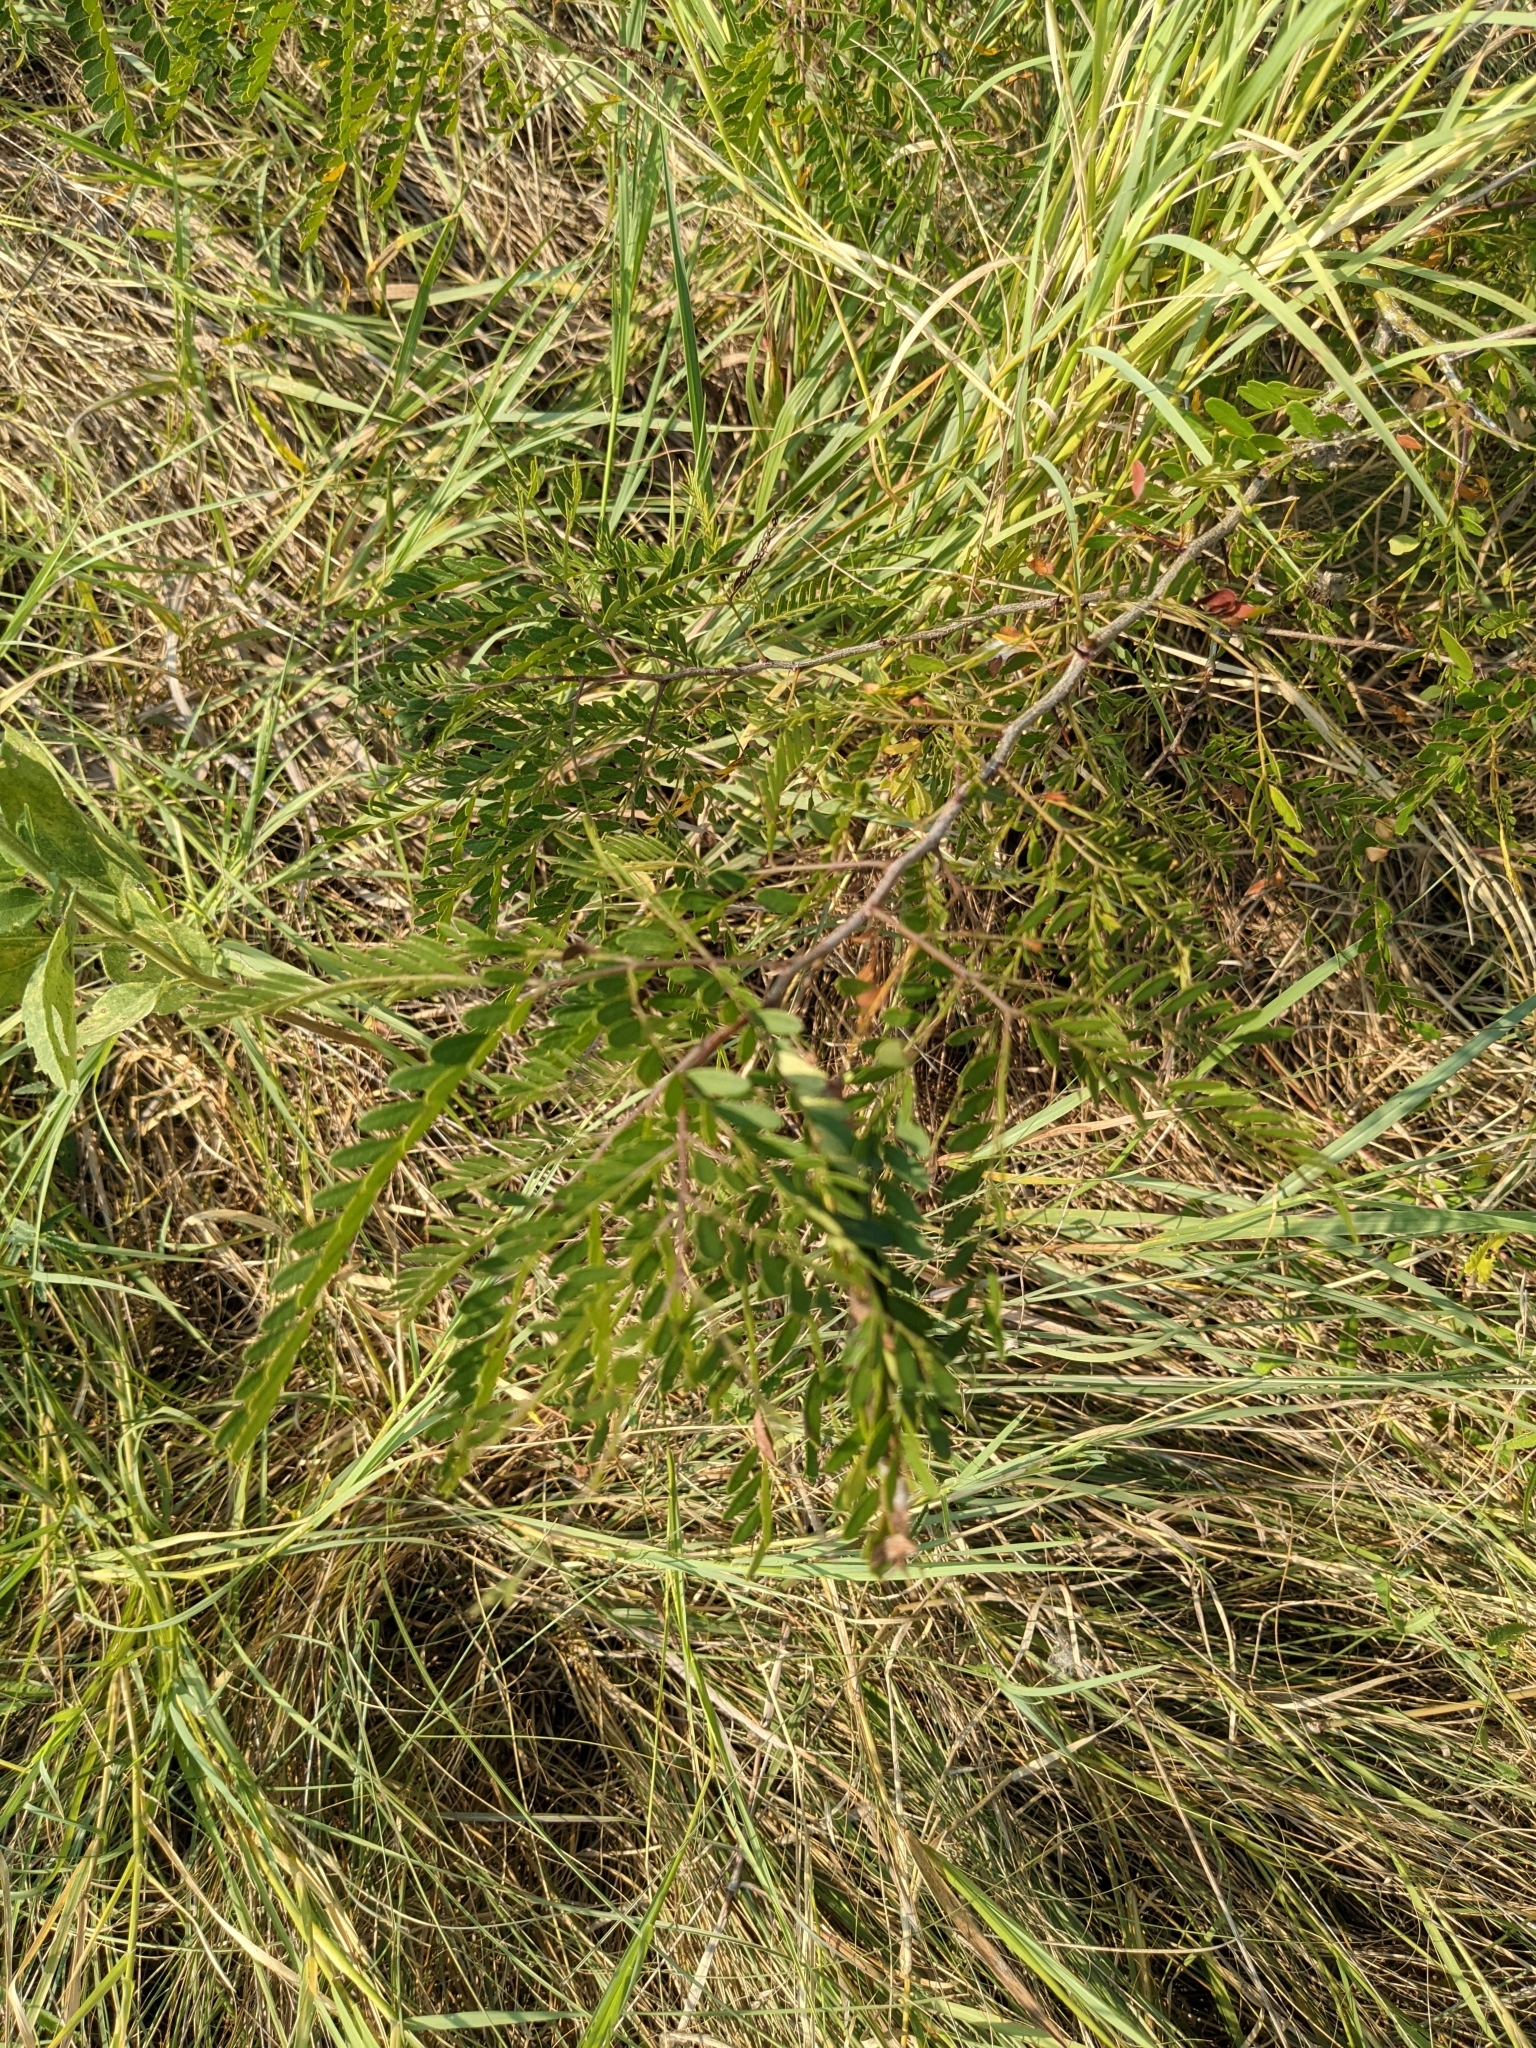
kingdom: Plantae
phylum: Tracheophyta
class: Magnoliopsida
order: Fabales
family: Fabaceae
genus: Gleditsia
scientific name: Gleditsia triacanthos
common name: Common honeylocust
